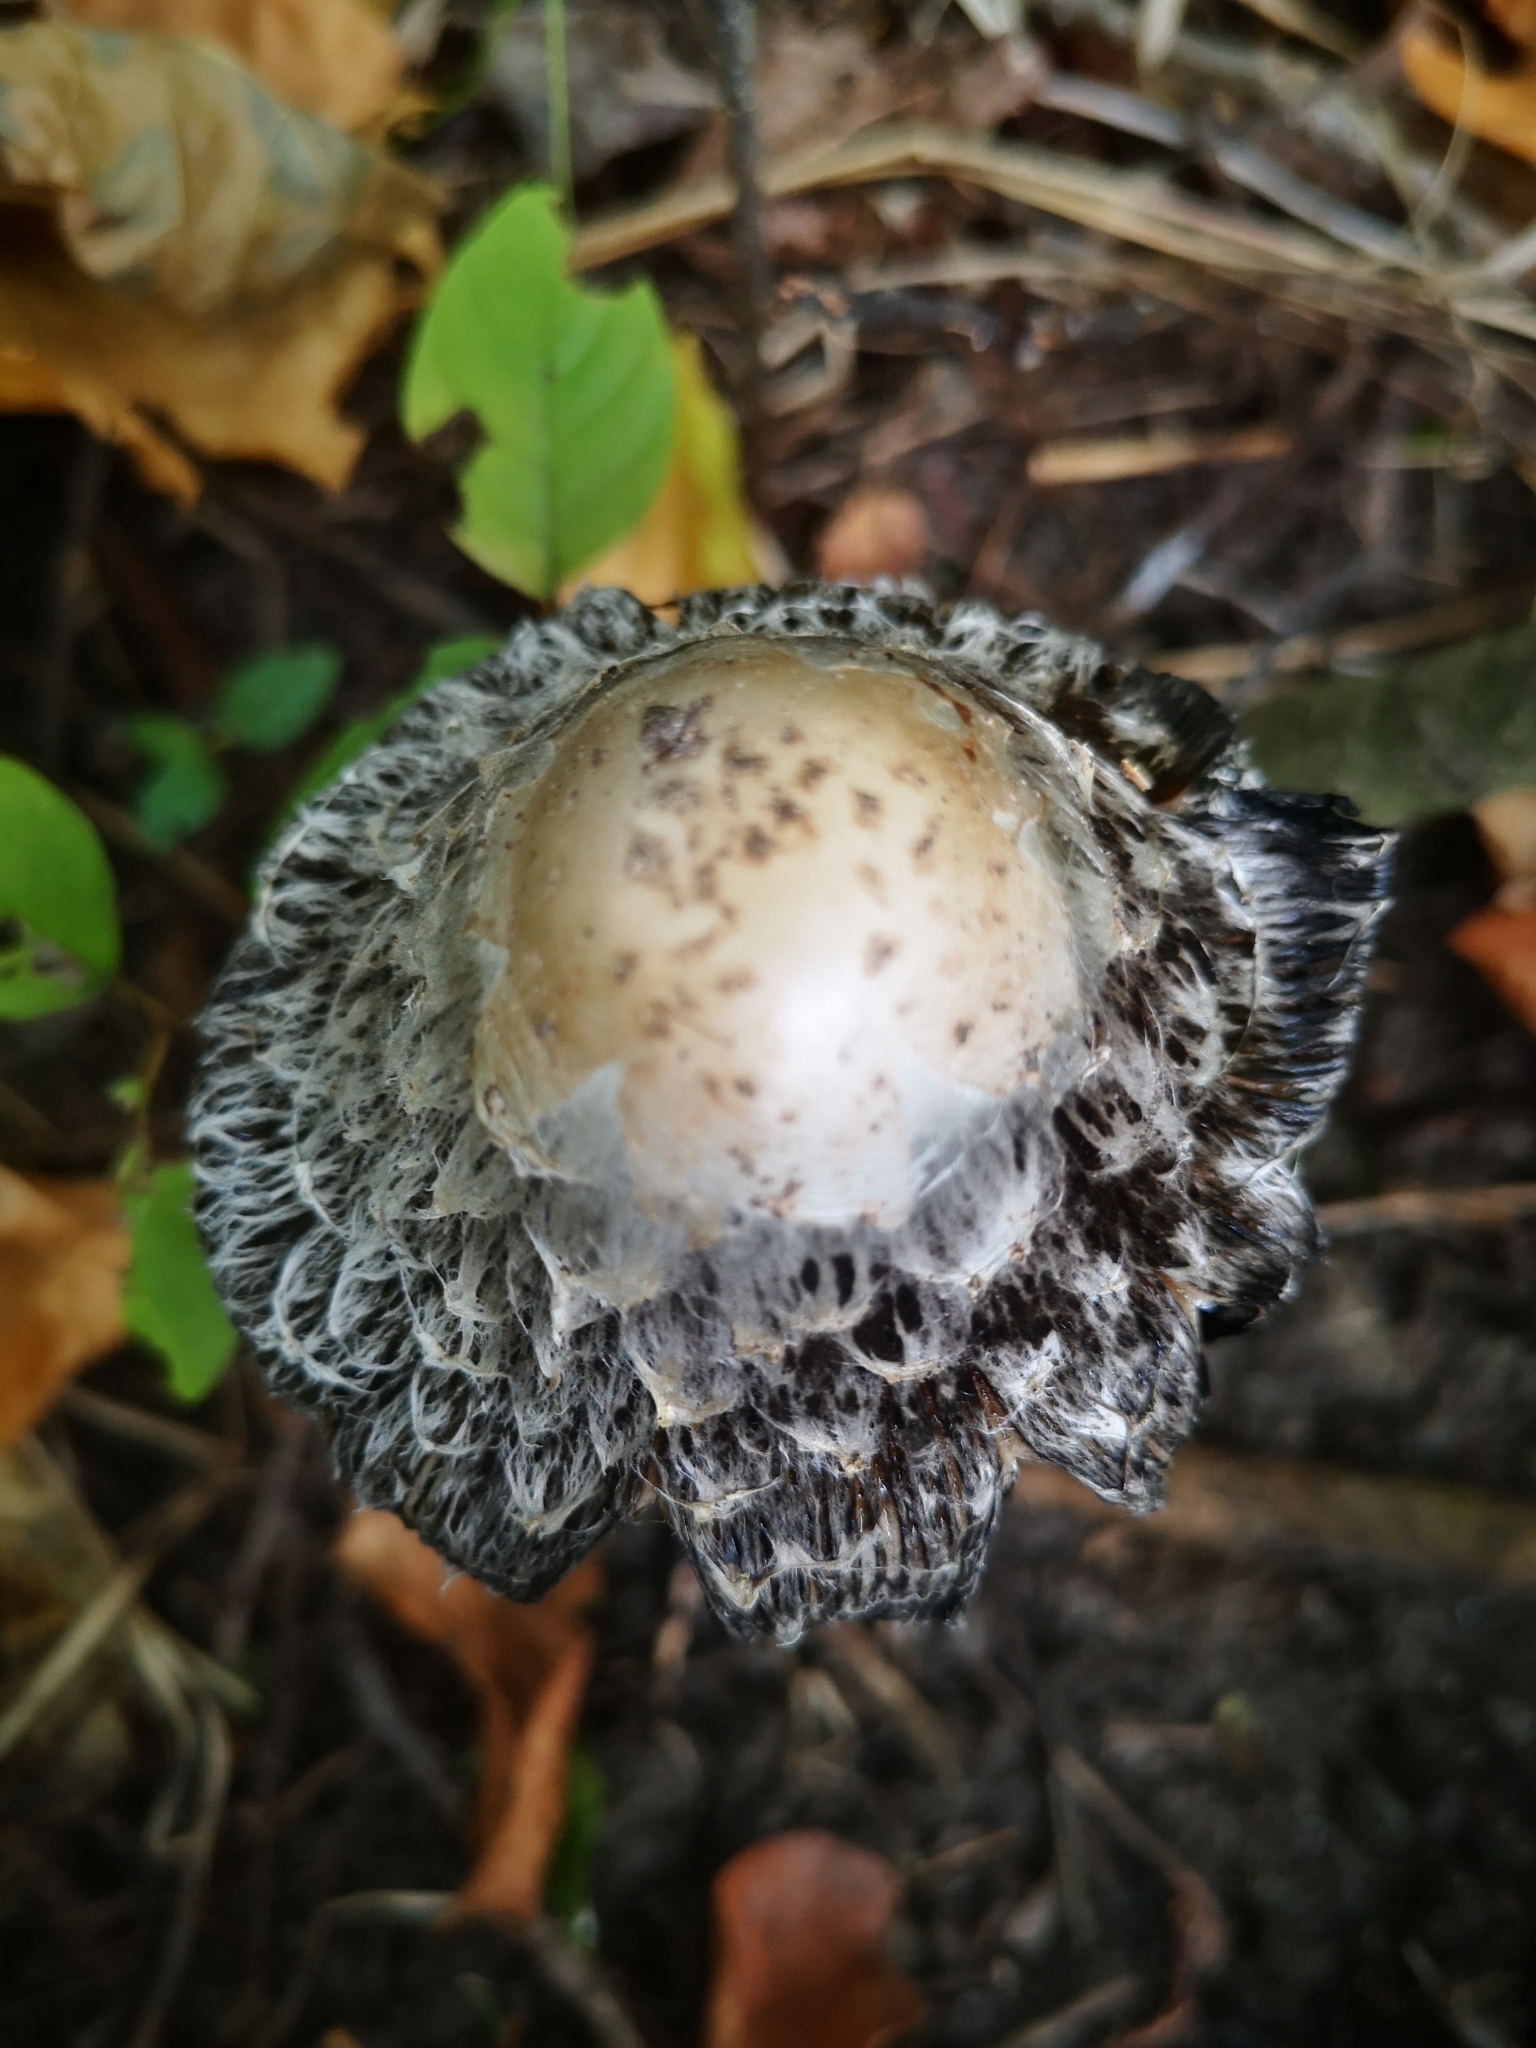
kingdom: Fungi
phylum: Basidiomycota
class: Agaricomycetes
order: Agaricales
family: Agaricaceae
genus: Coprinus
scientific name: Coprinus comatus
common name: Lawyer's wig
